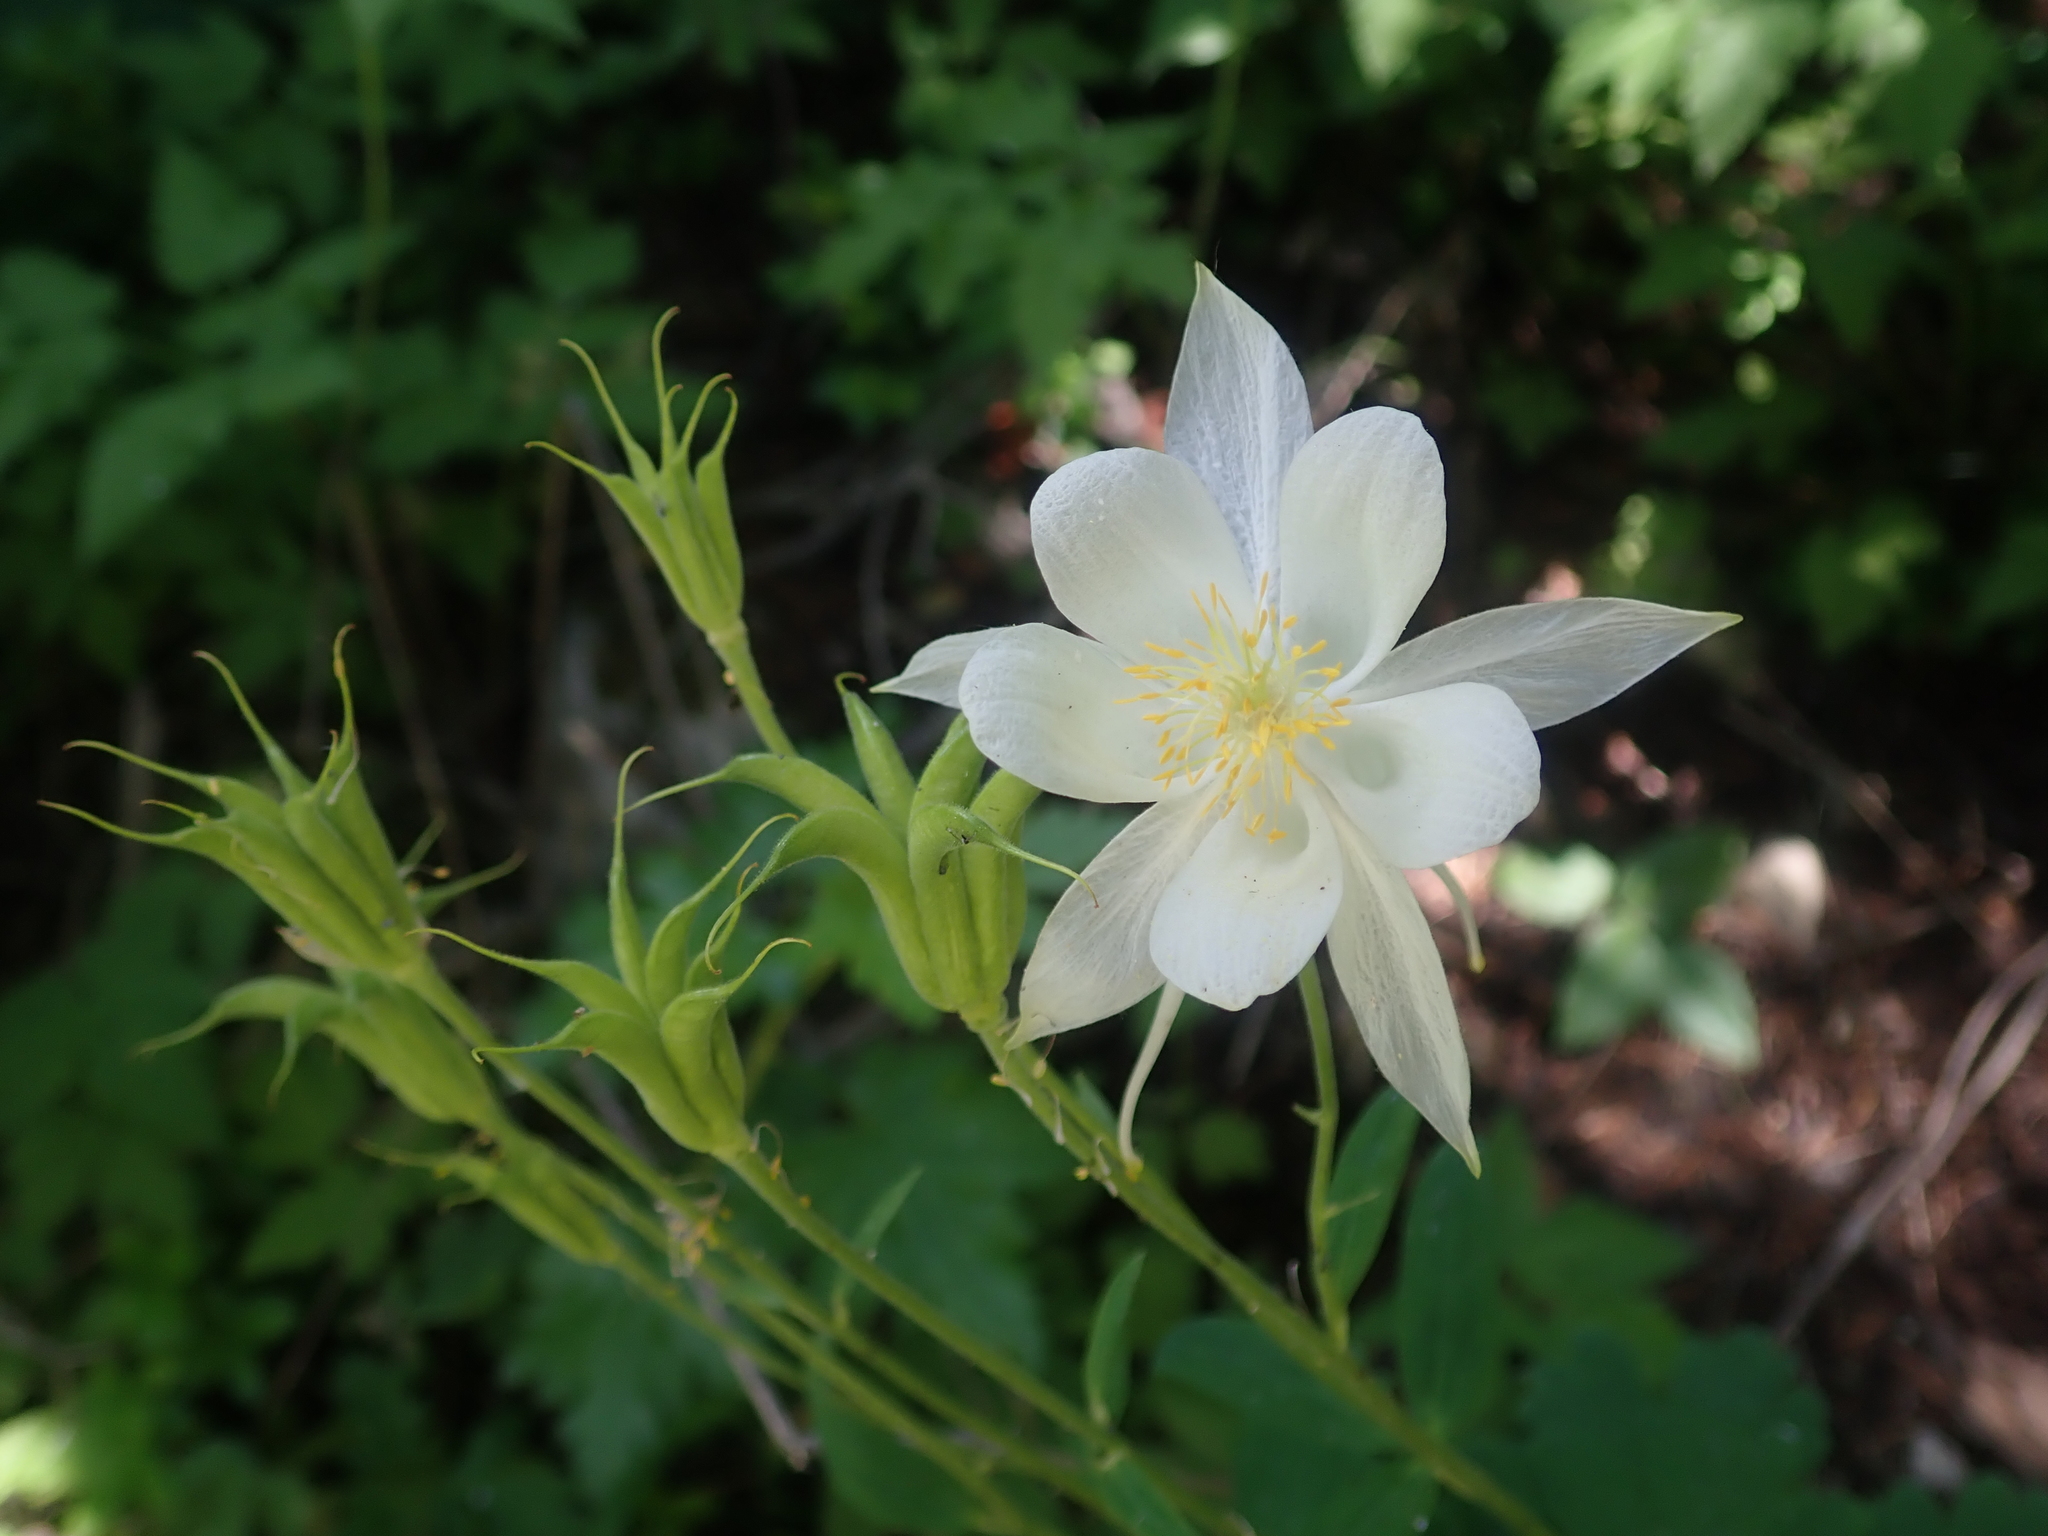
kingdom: Plantae
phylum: Tracheophyta
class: Magnoliopsida
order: Ranunculales
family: Ranunculaceae
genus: Aquilegia
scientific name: Aquilegia coerulea
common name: Rocky mountain columbine
